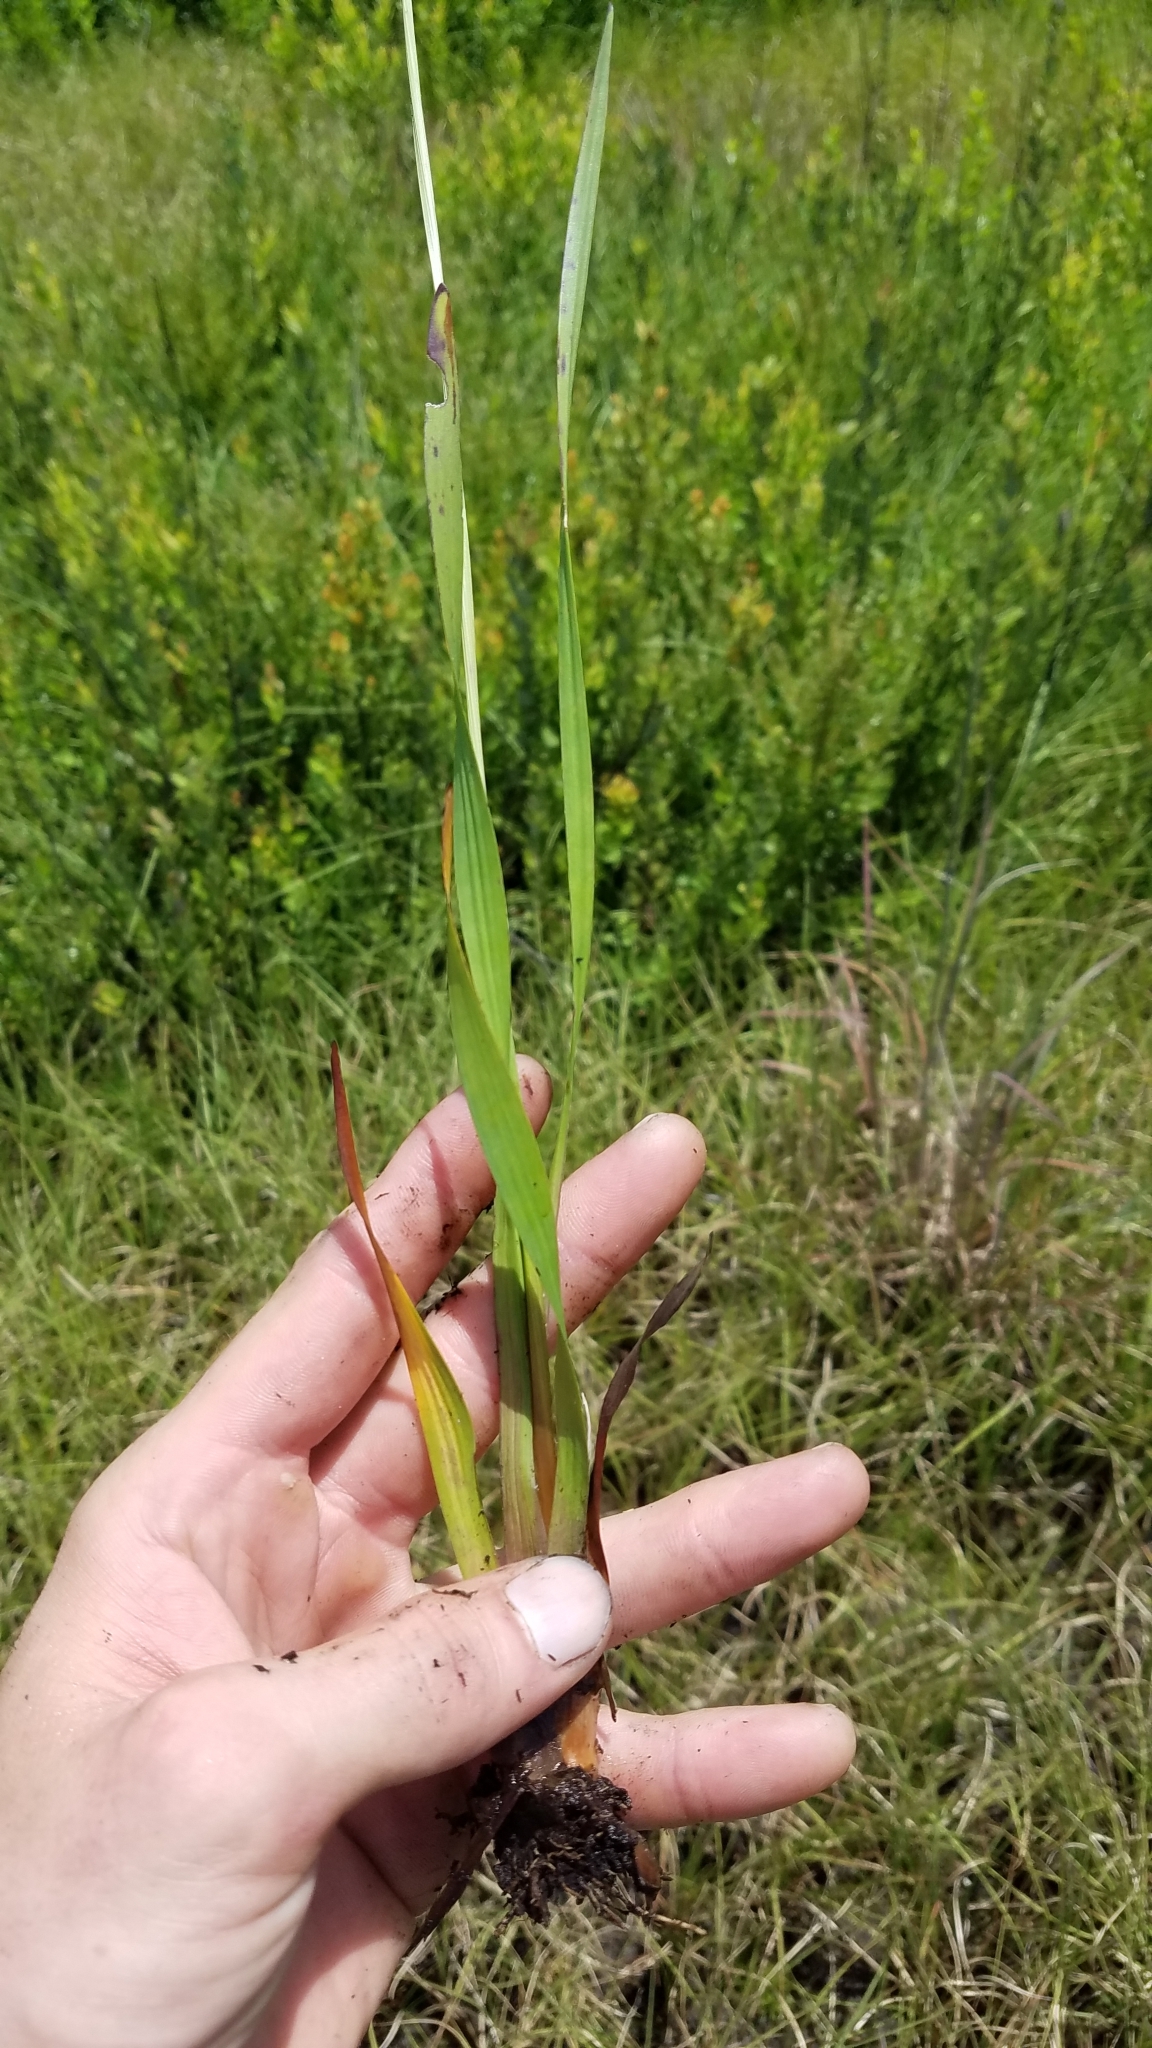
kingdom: Plantae
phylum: Tracheophyta
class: Liliopsida
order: Poales
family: Xyridaceae
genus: Xyris
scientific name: Xyris platylepis
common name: Tall yelloweyed grass
